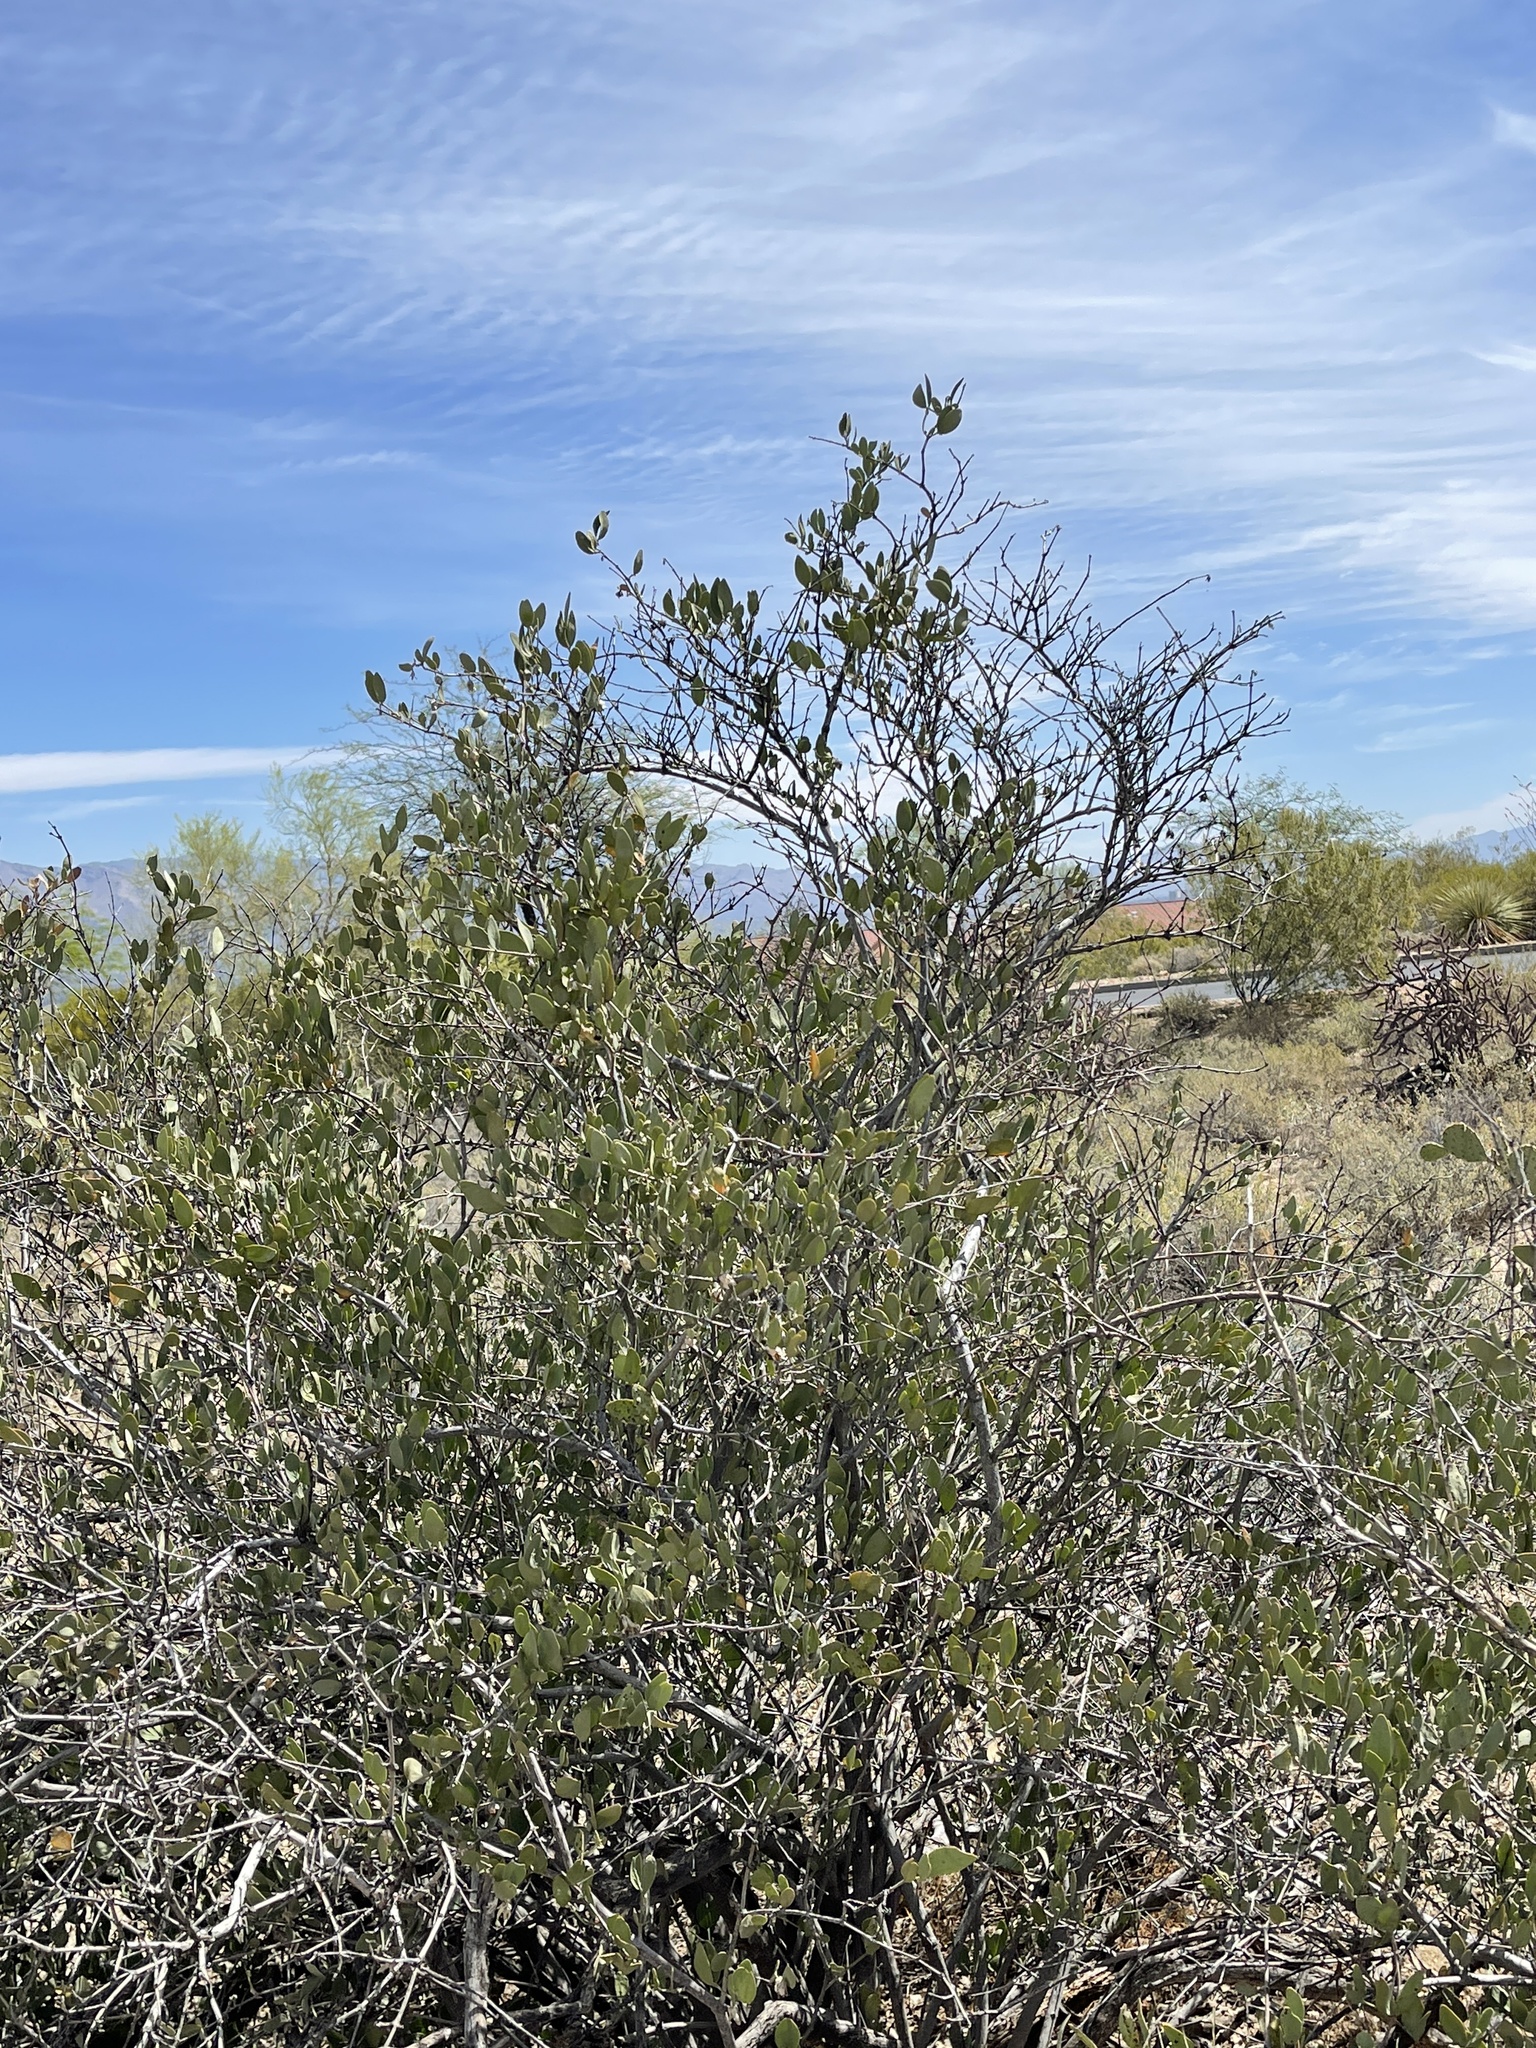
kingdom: Plantae
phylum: Tracheophyta
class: Magnoliopsida
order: Caryophyllales
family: Simmondsiaceae
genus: Simmondsia
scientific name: Simmondsia chinensis
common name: Jojoba
